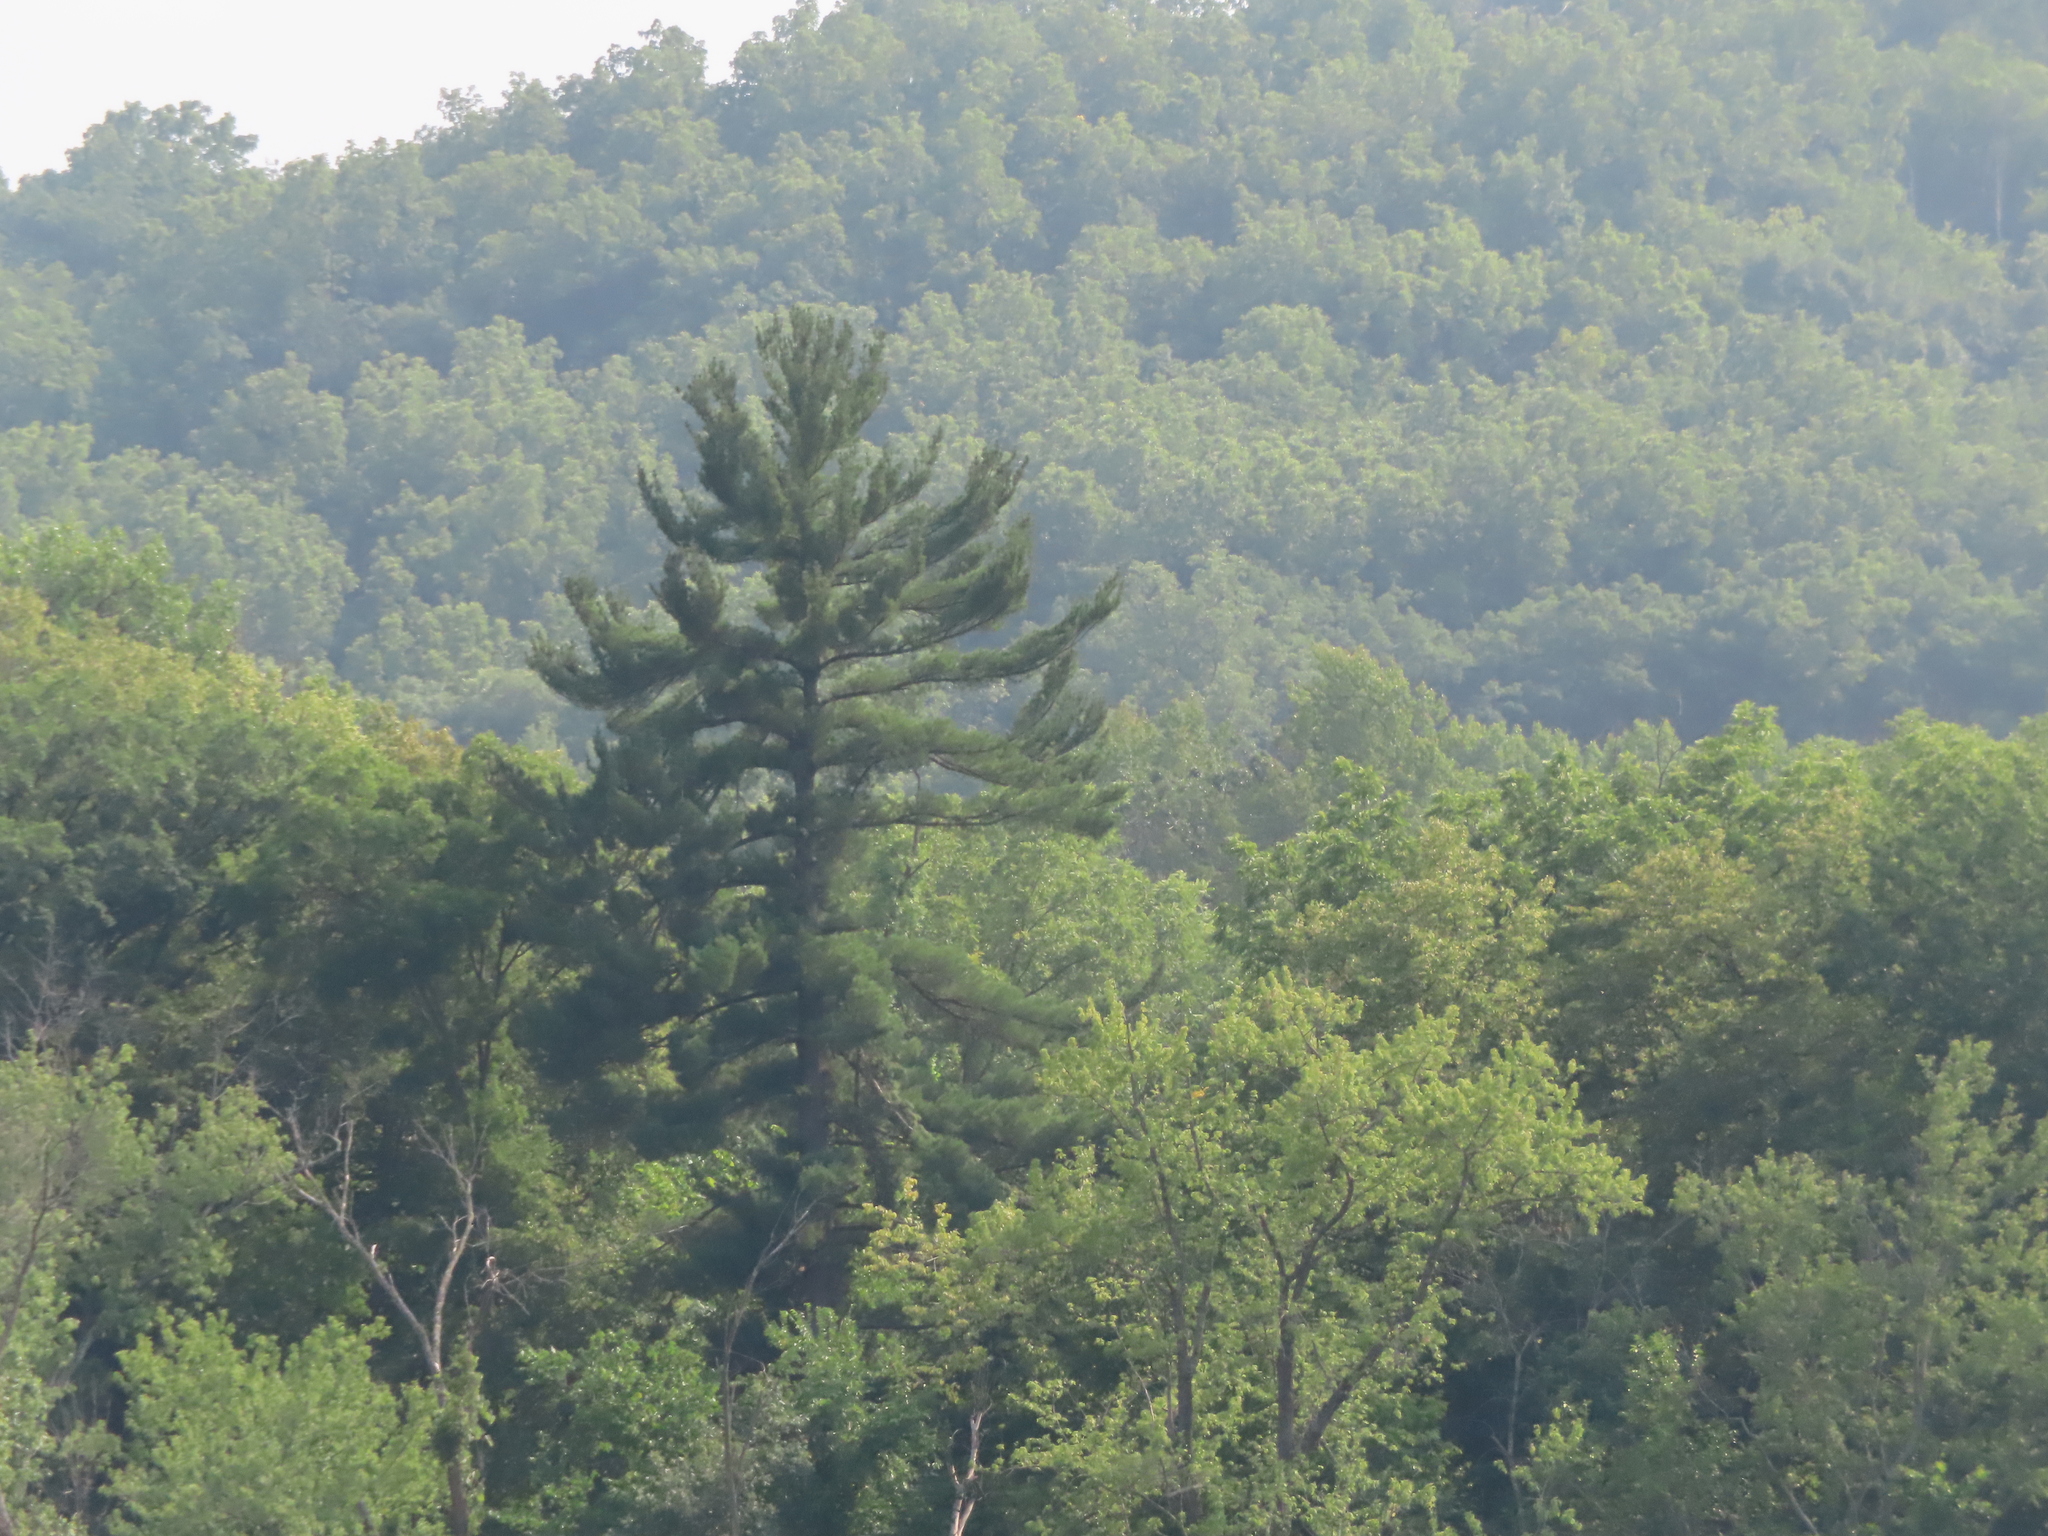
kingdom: Plantae
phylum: Tracheophyta
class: Pinopsida
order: Pinales
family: Pinaceae
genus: Pinus
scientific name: Pinus strobus
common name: Weymouth pine
